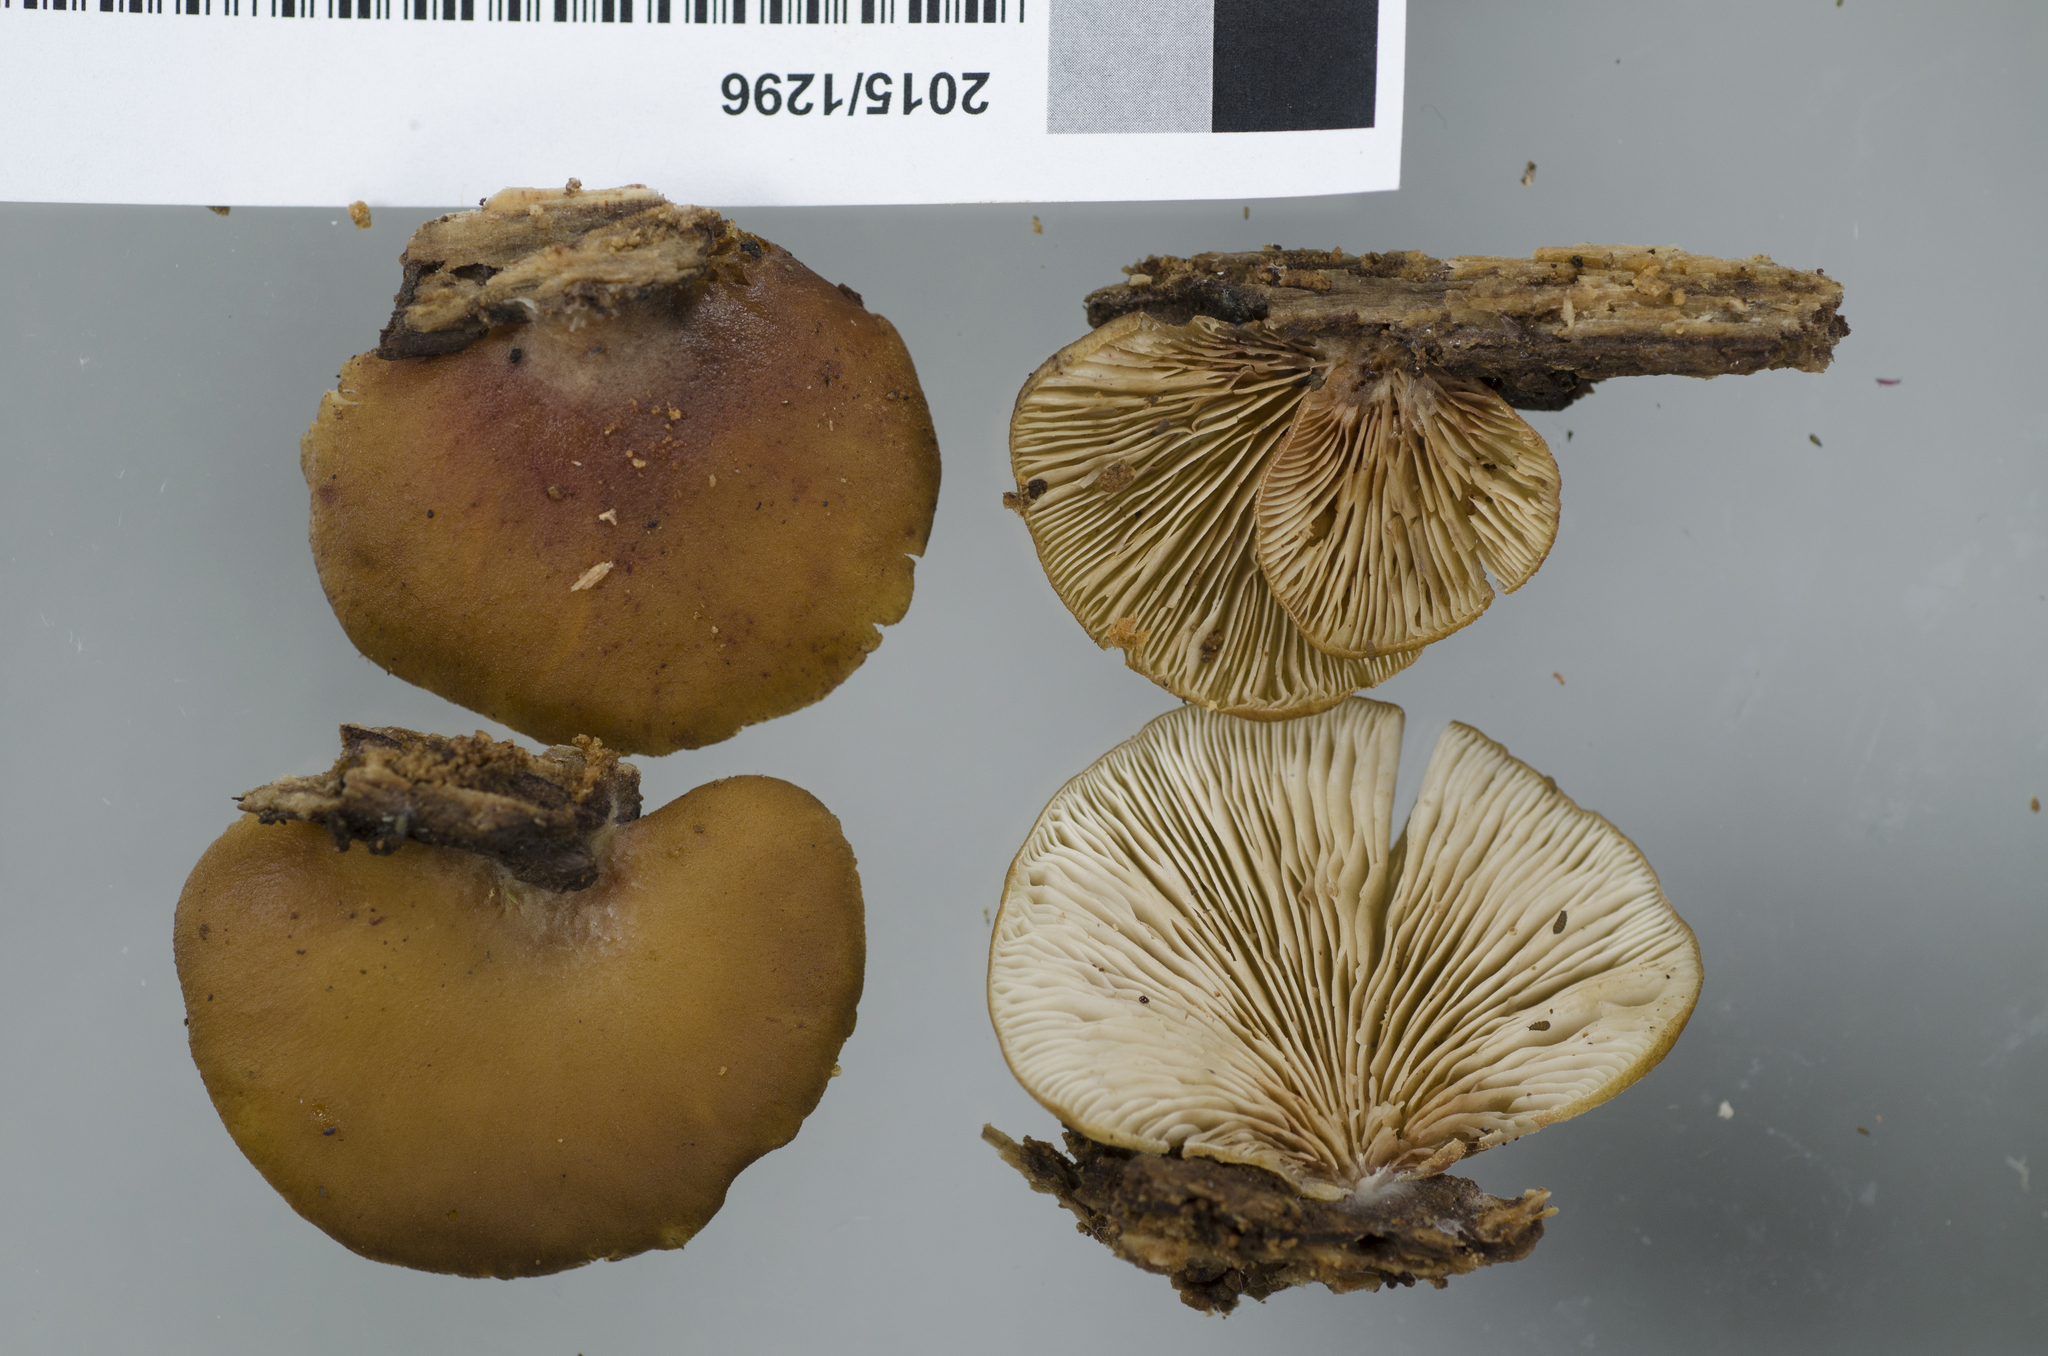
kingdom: Fungi
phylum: Basidiomycota
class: Agaricomycetes
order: Agaricales
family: Crepidotaceae
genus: Crepidotus
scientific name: Crepidotus rufofloccosus
